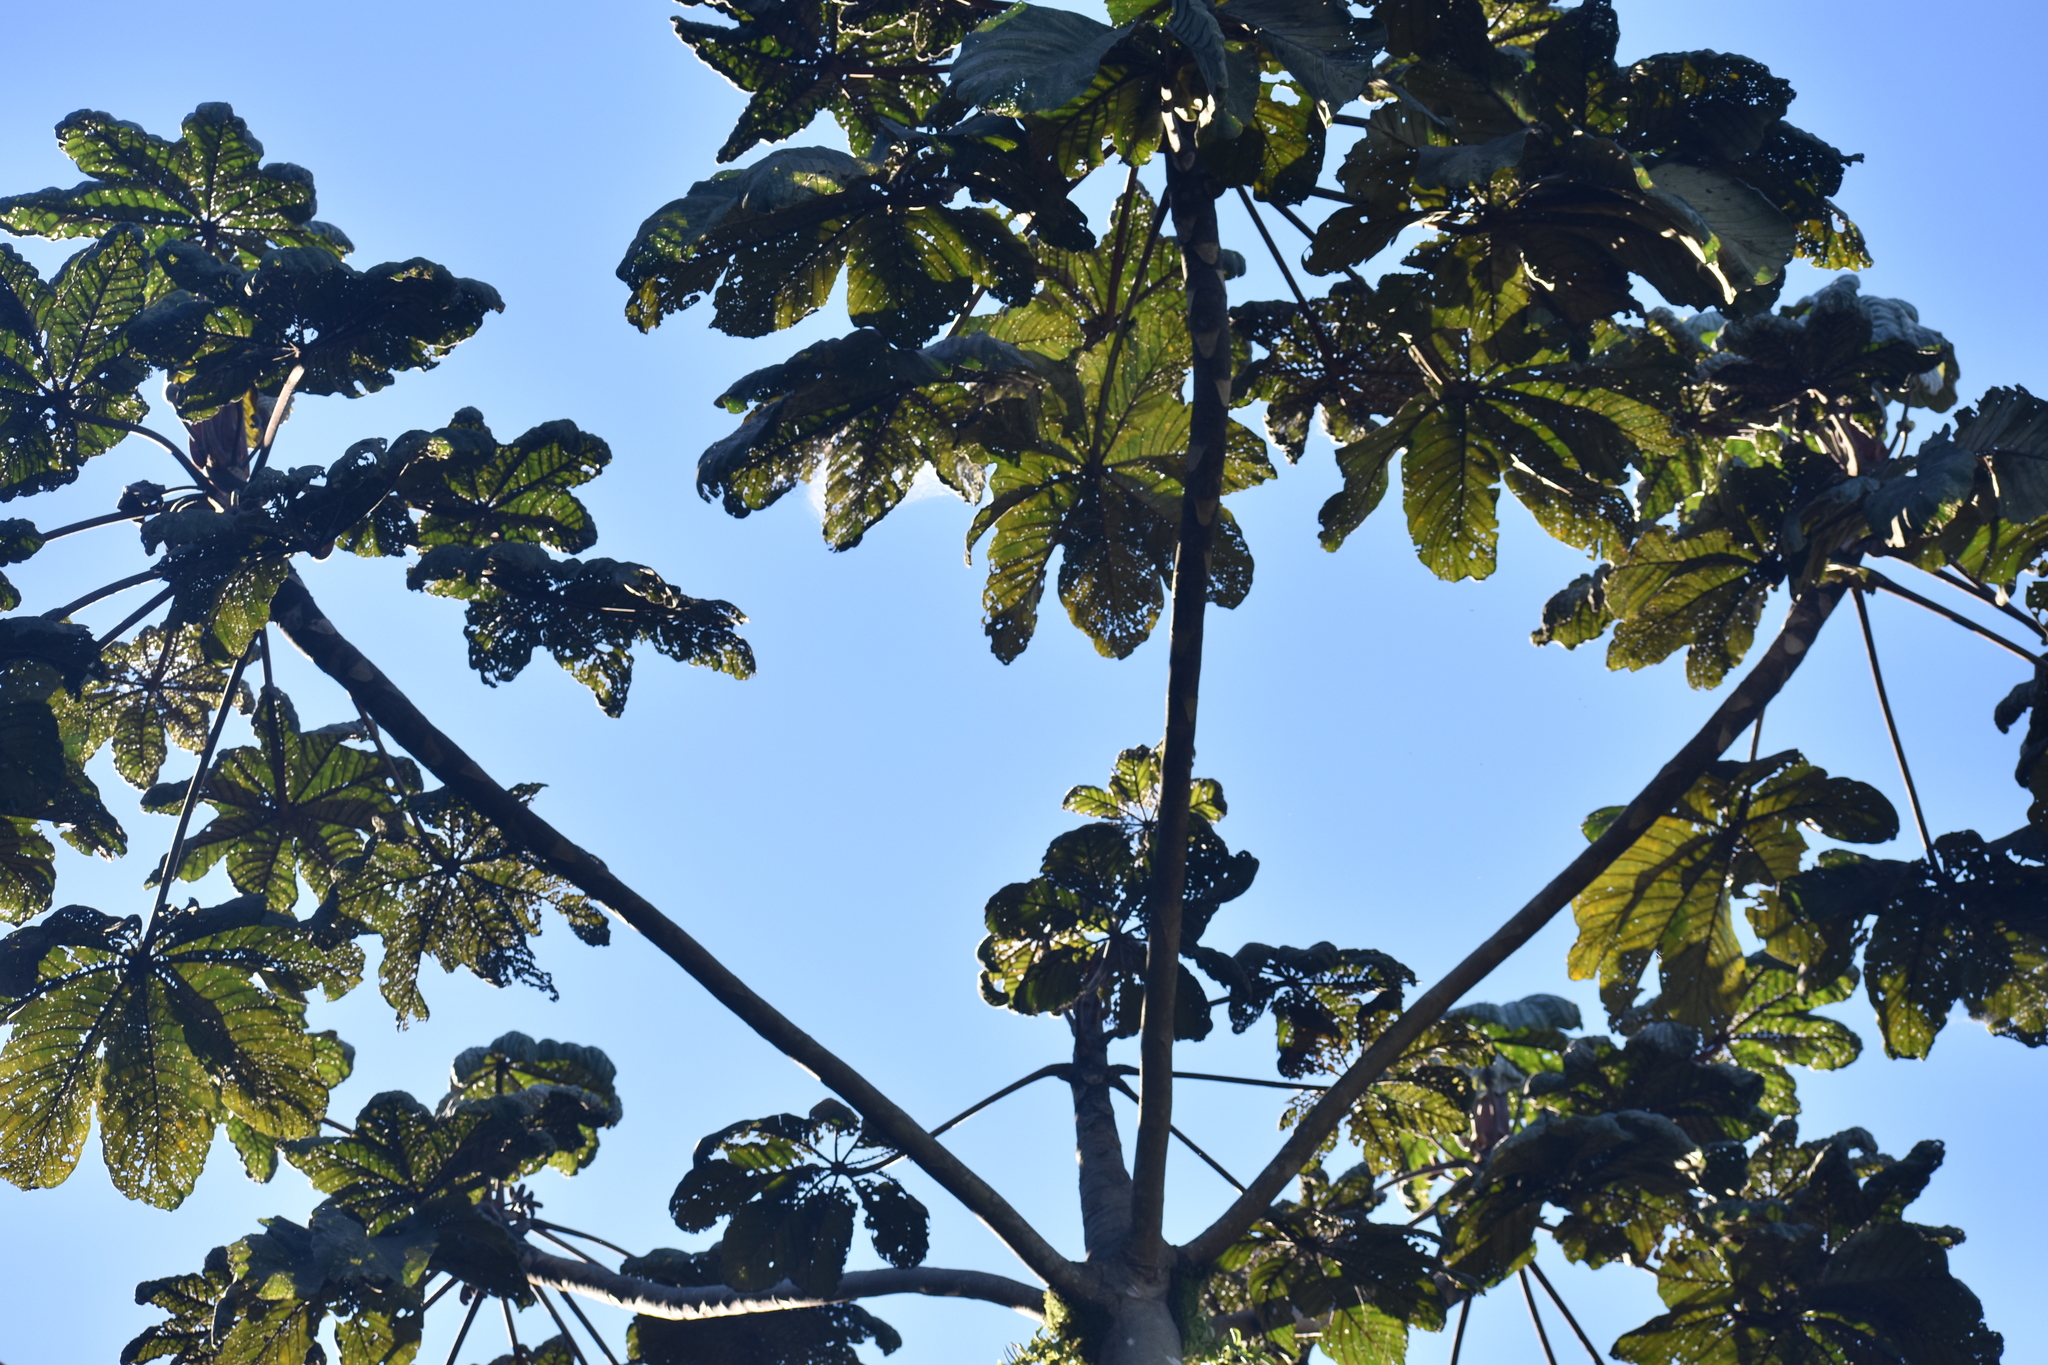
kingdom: Plantae
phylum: Tracheophyta
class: Magnoliopsida
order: Rosales
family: Urticaceae
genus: Cecropia
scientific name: Cecropia peltata
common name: Trumpet-tree
